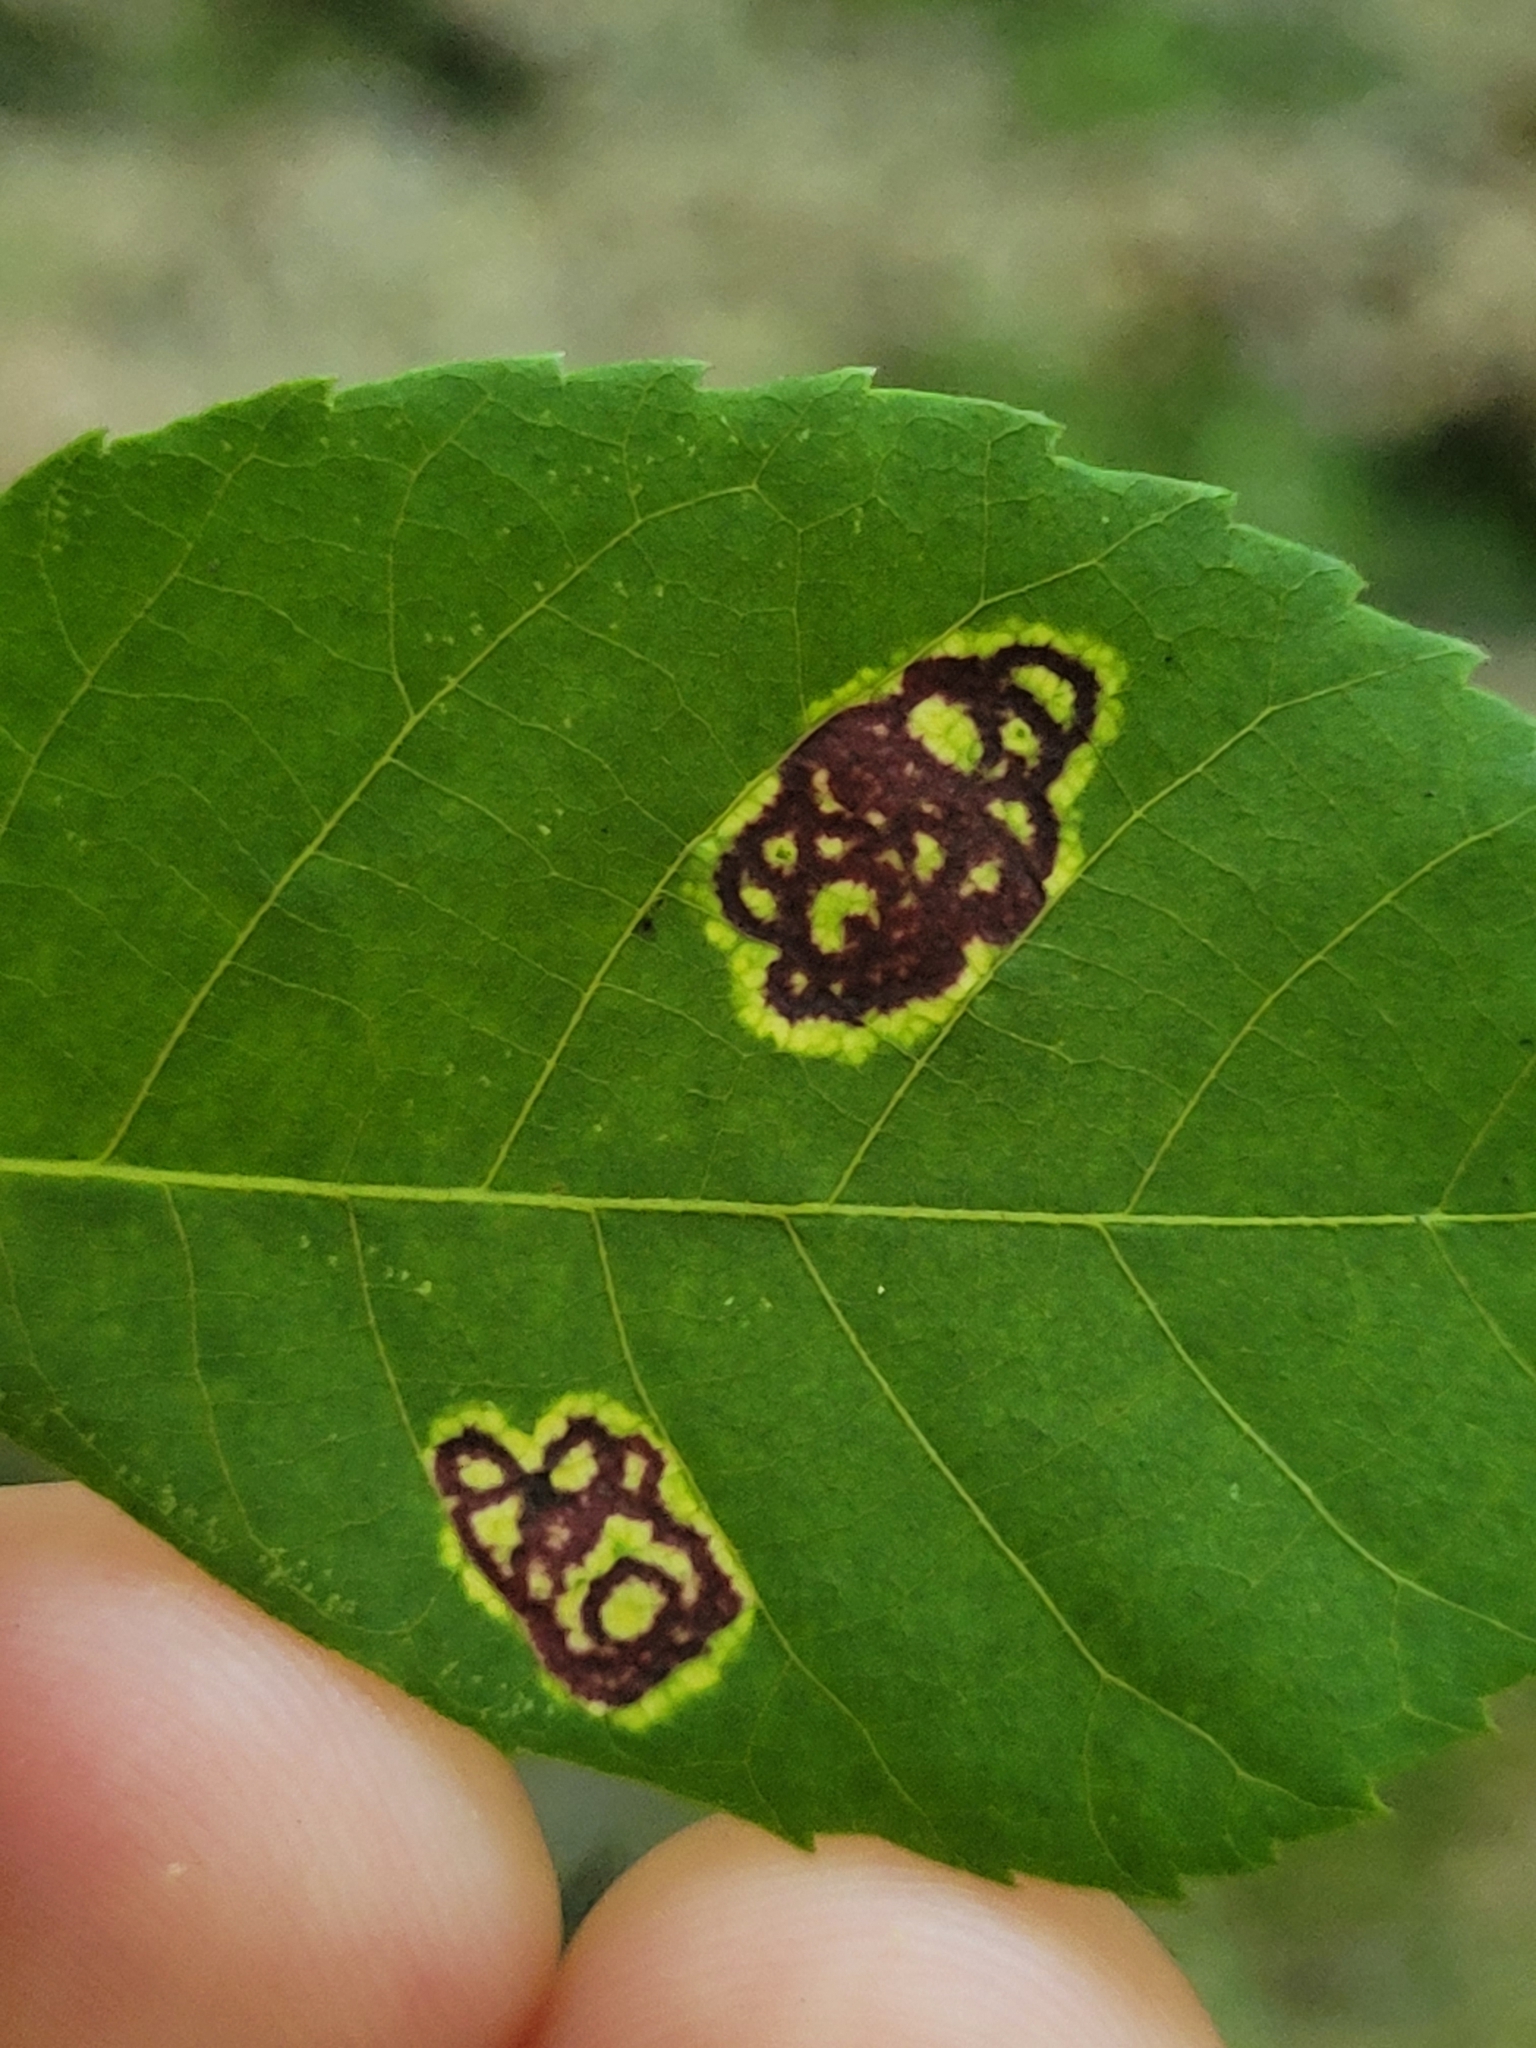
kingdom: Animalia
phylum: Arthropoda
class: Insecta
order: Diptera
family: Cecidomyiidae
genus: Gliaspilota
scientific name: Gliaspilota glutinosa
